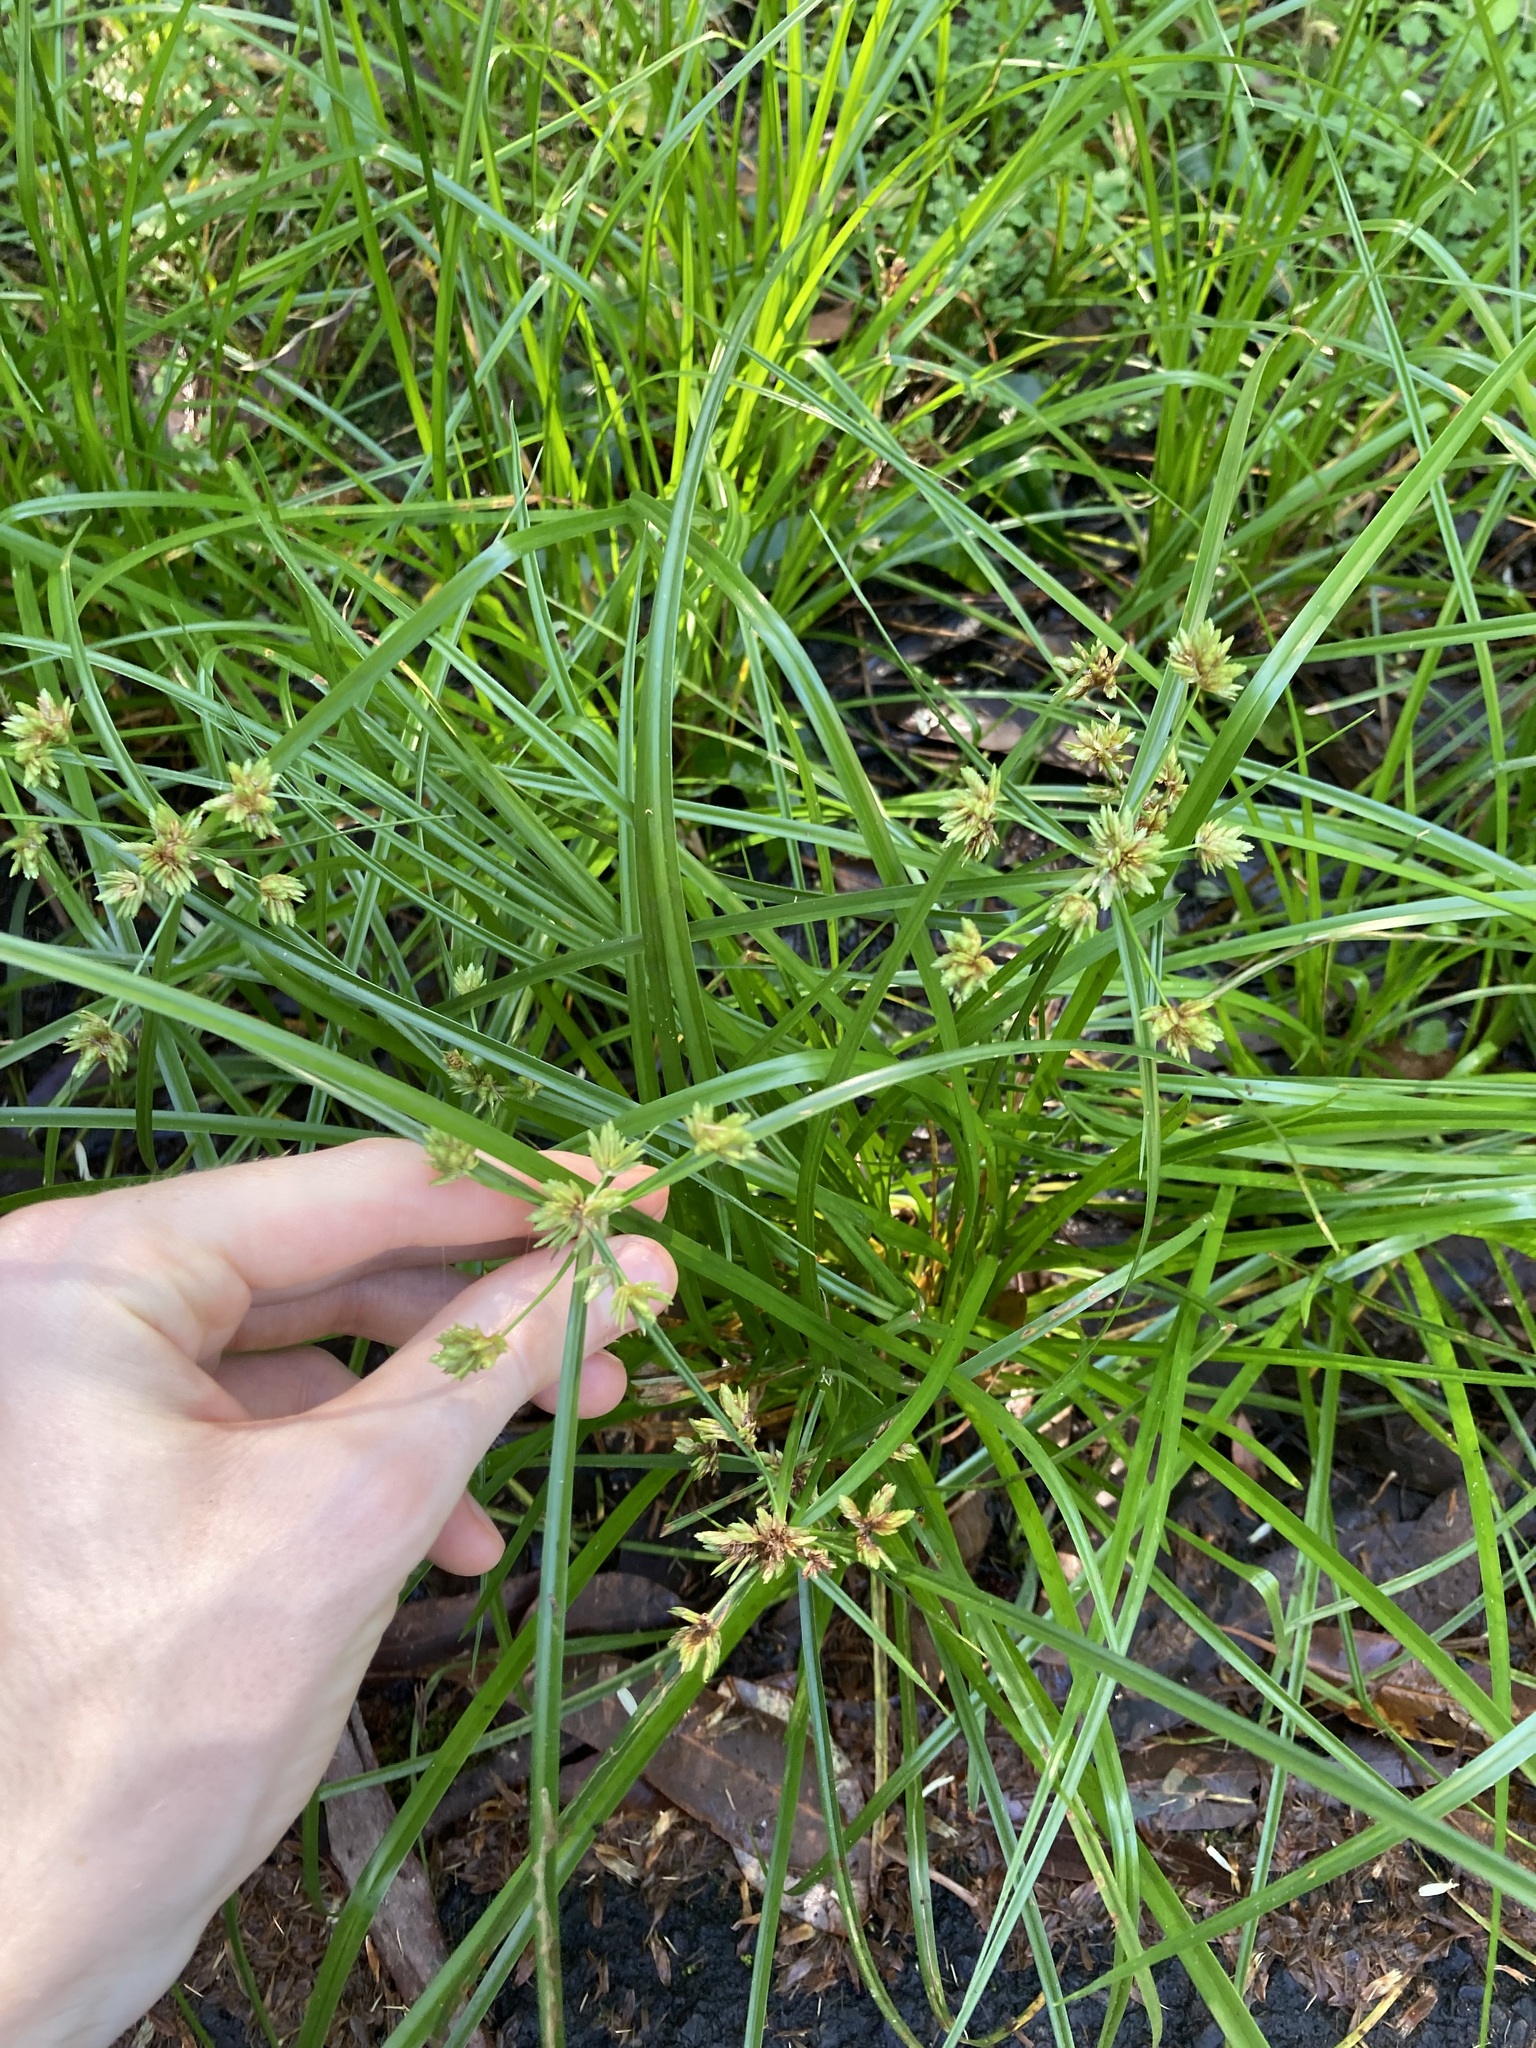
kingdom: Plantae
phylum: Tracheophyta
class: Liliopsida
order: Poales
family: Cyperaceae
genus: Cyperus
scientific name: Cyperus eragrostis
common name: Tall flatsedge
